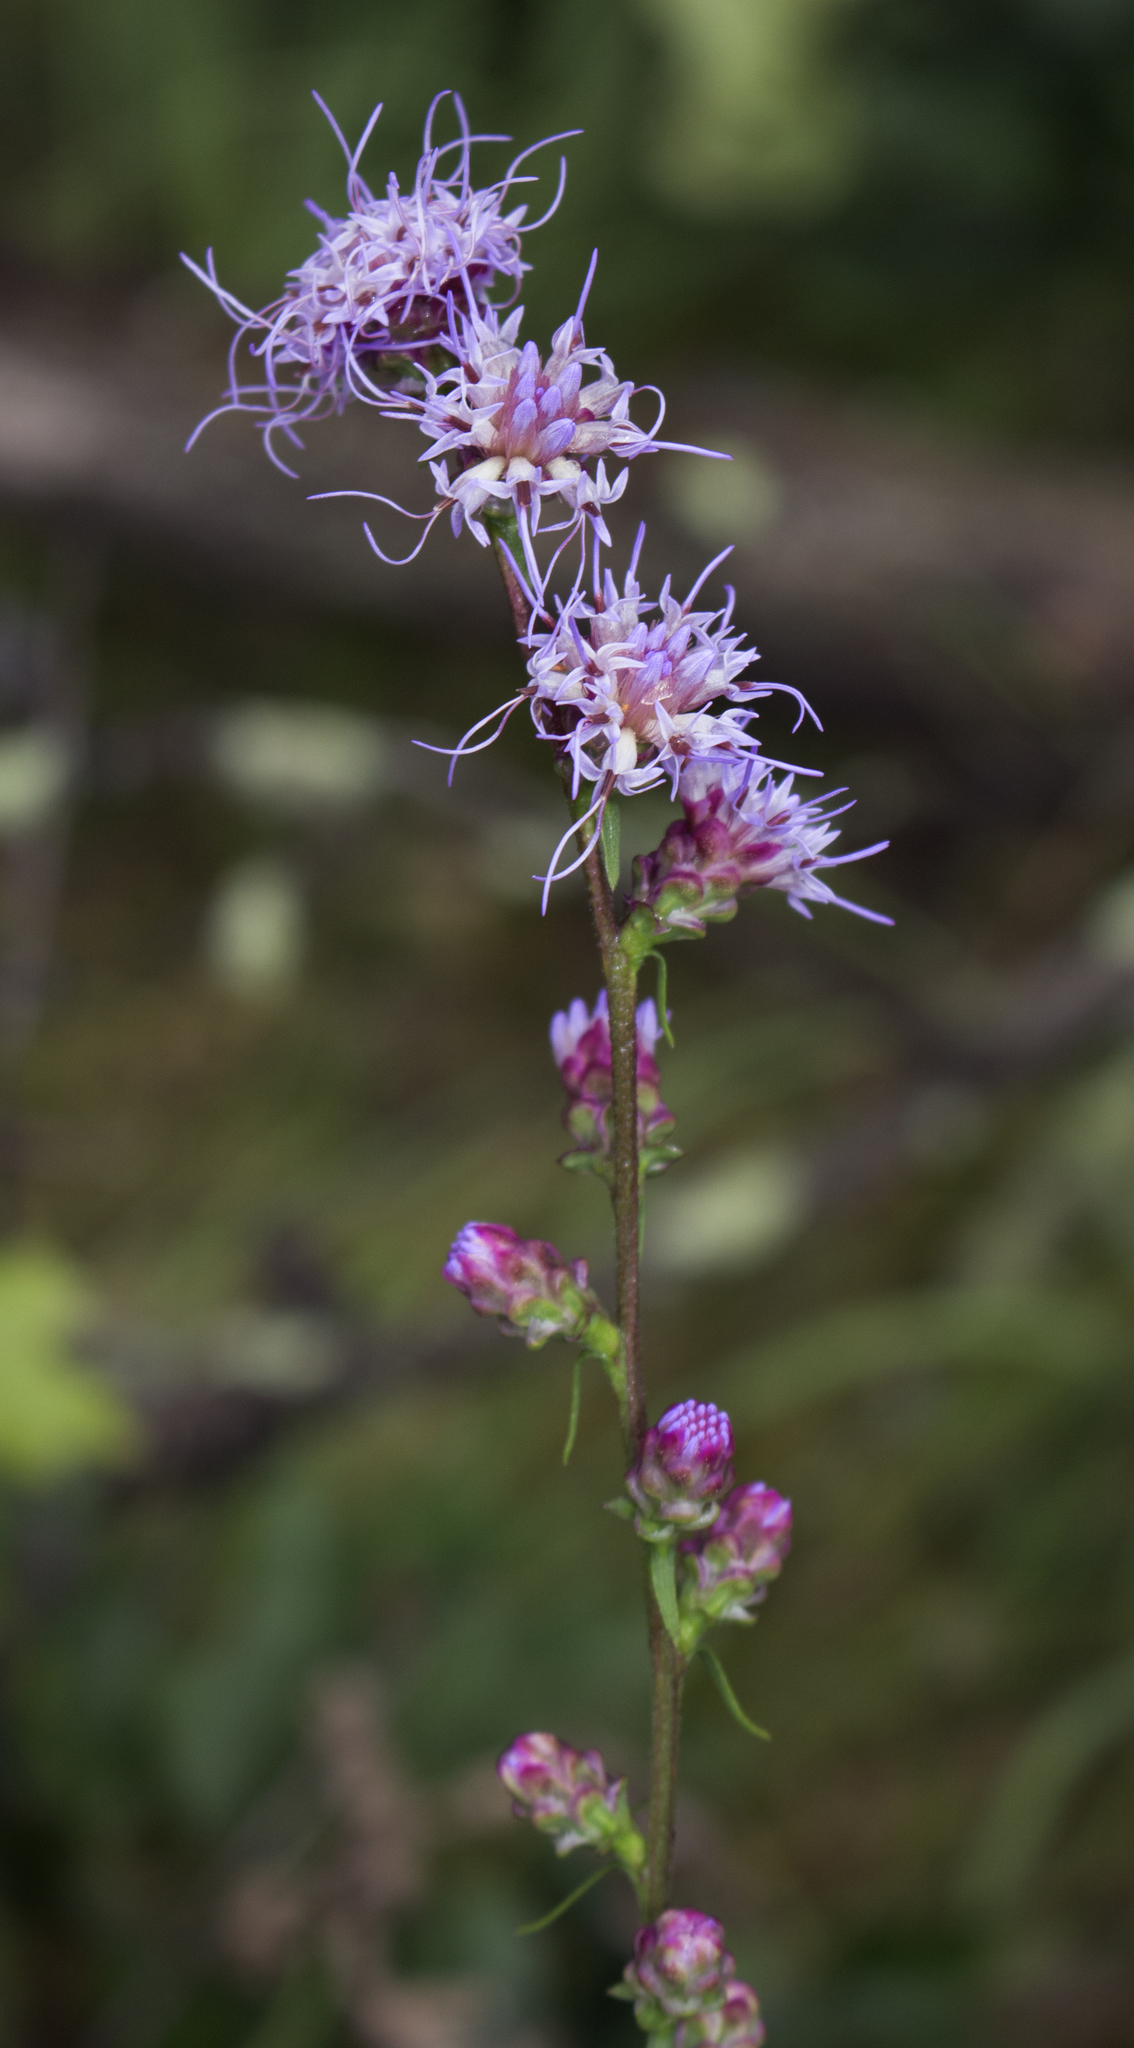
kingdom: Plantae
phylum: Tracheophyta
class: Magnoliopsida
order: Asterales
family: Asteraceae
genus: Liatris
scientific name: Liatris aspera
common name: Lacerate blazing-star
